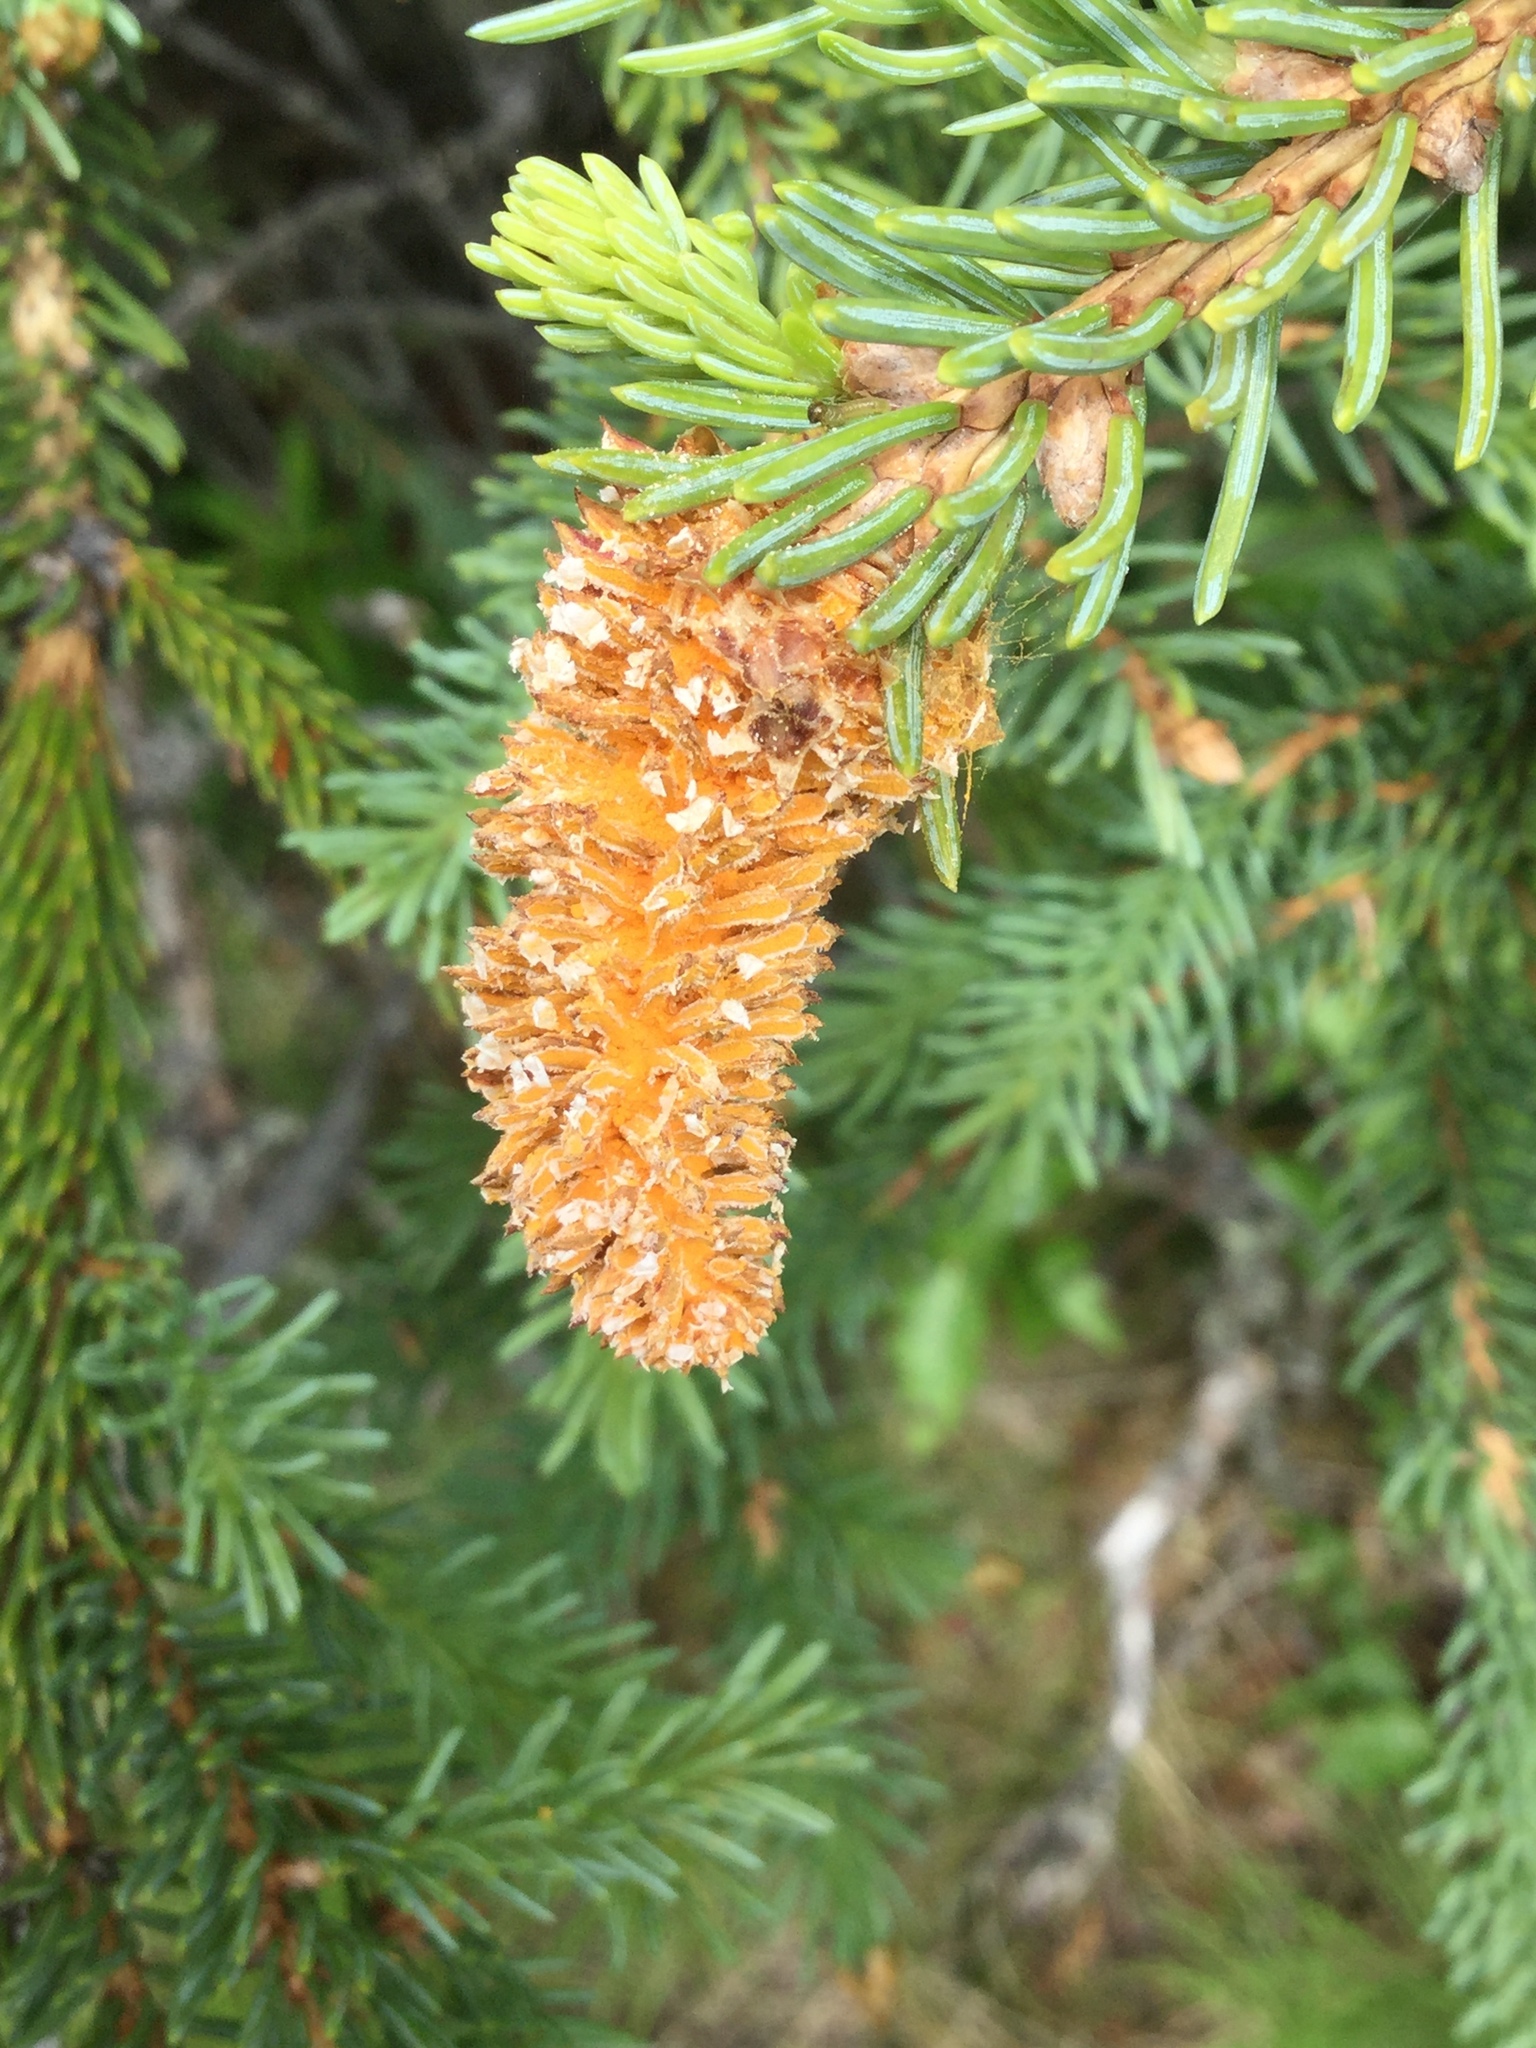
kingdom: Fungi
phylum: Basidiomycota
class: Pucciniomycetes
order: Pucciniales
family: Coleosporiaceae
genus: Chrysomyxa
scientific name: Chrysomyxa woroninii
